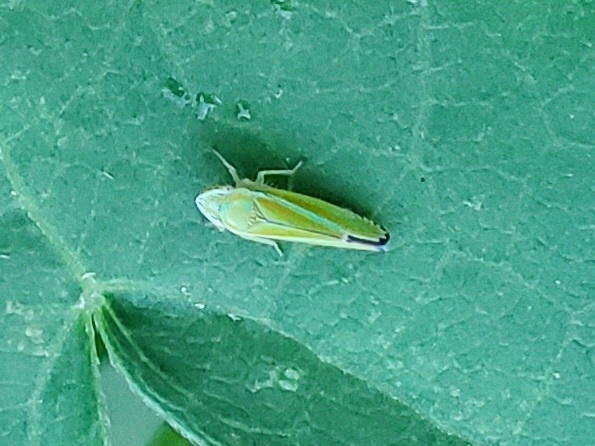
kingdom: Animalia
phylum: Arthropoda
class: Insecta
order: Hemiptera
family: Cicadellidae
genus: Graphocephala
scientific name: Graphocephala versuta
